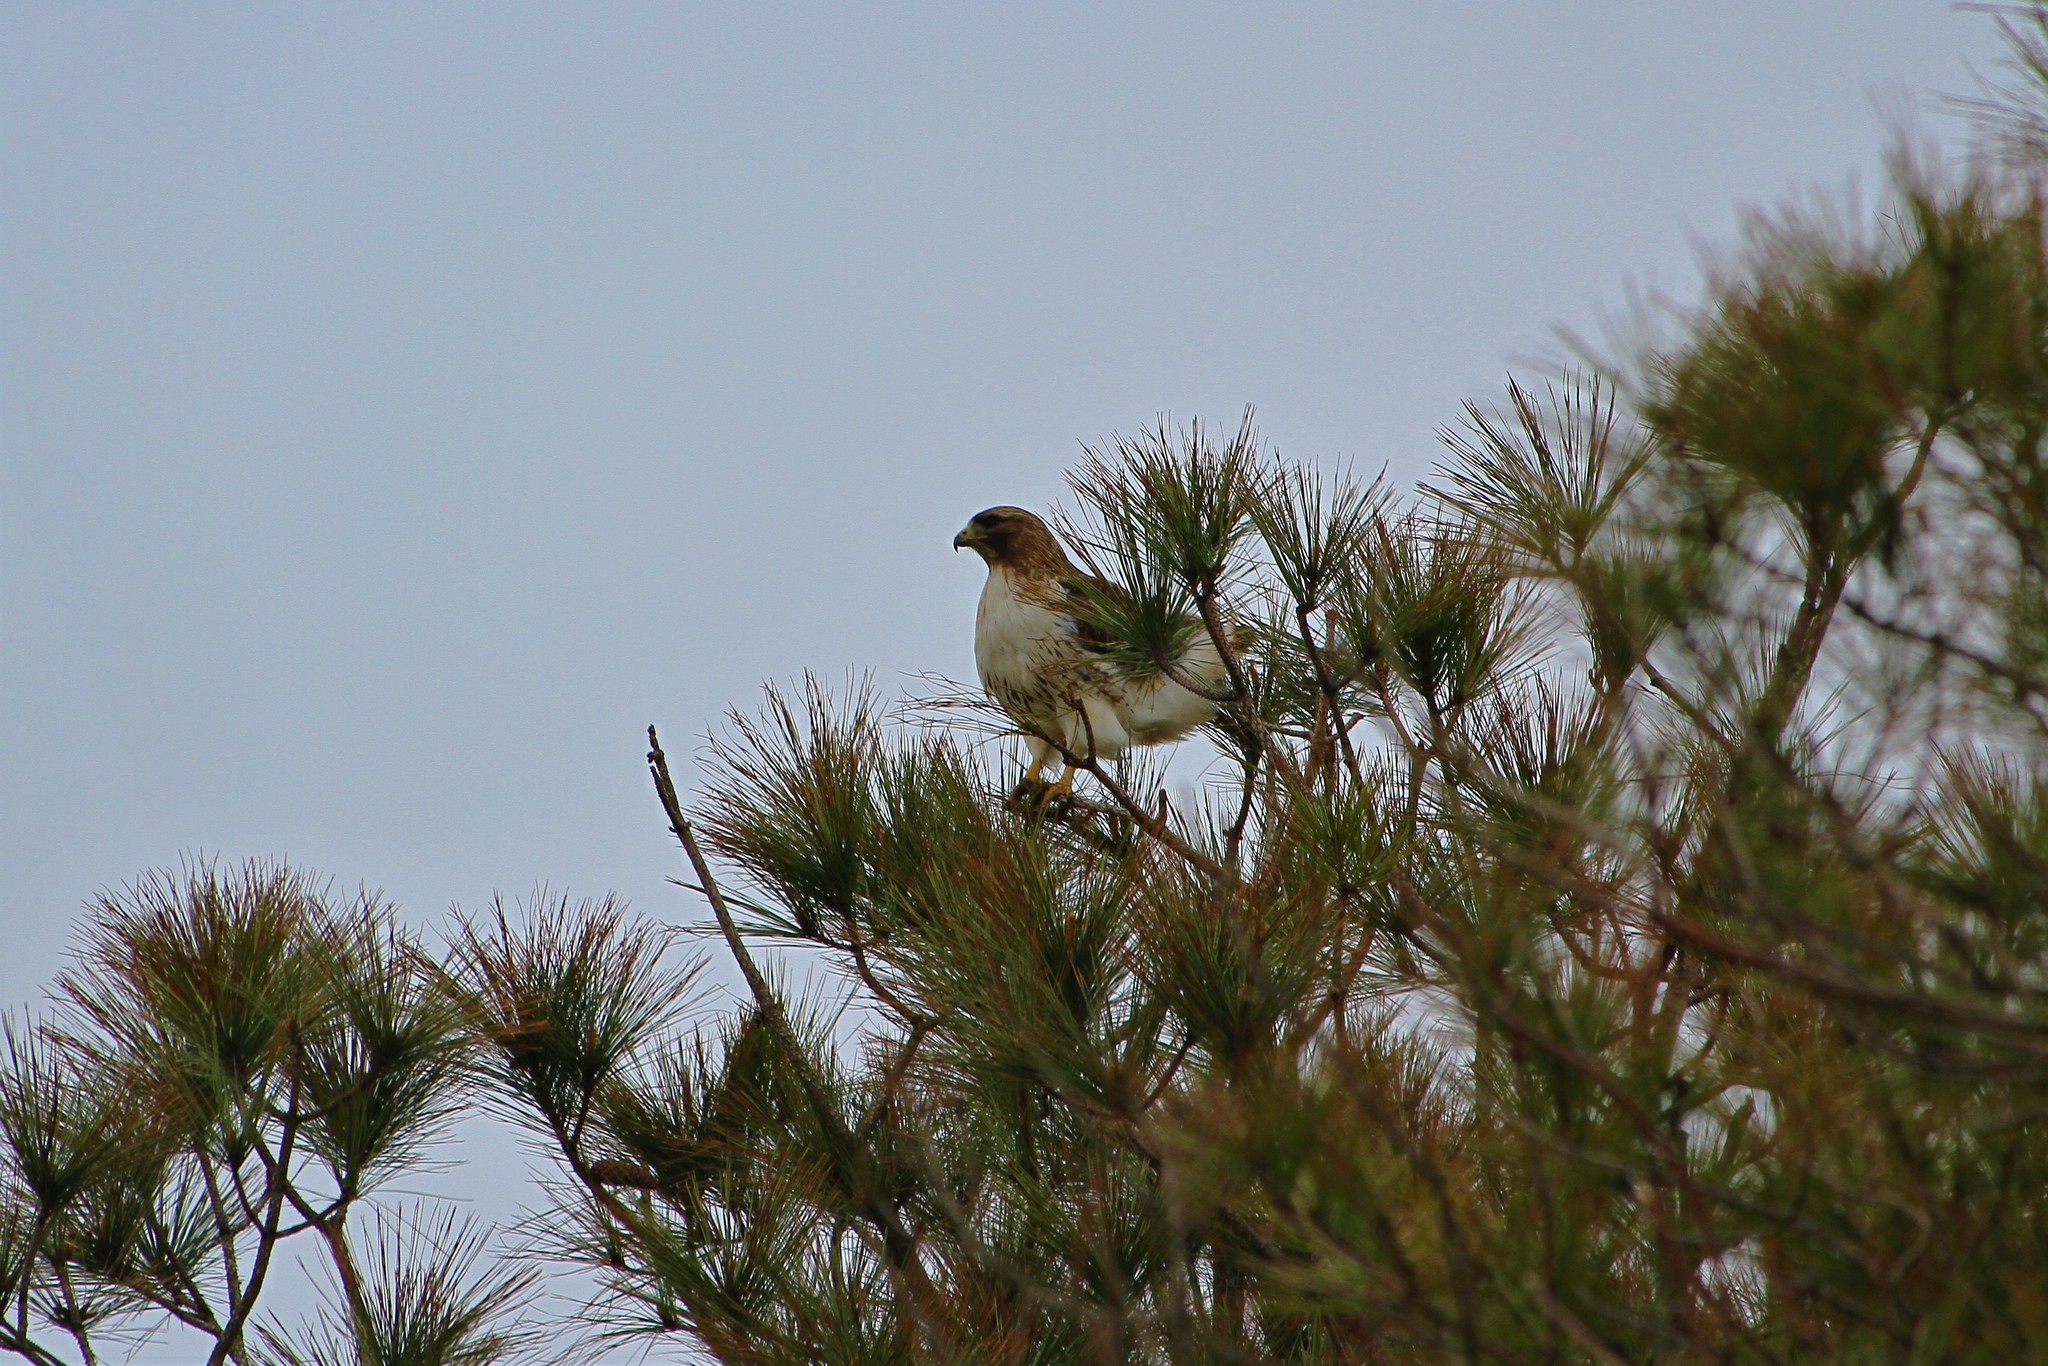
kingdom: Animalia
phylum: Chordata
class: Aves
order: Accipitriformes
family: Accipitridae
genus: Buteo
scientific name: Buteo jamaicensis
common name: Red-tailed hawk
